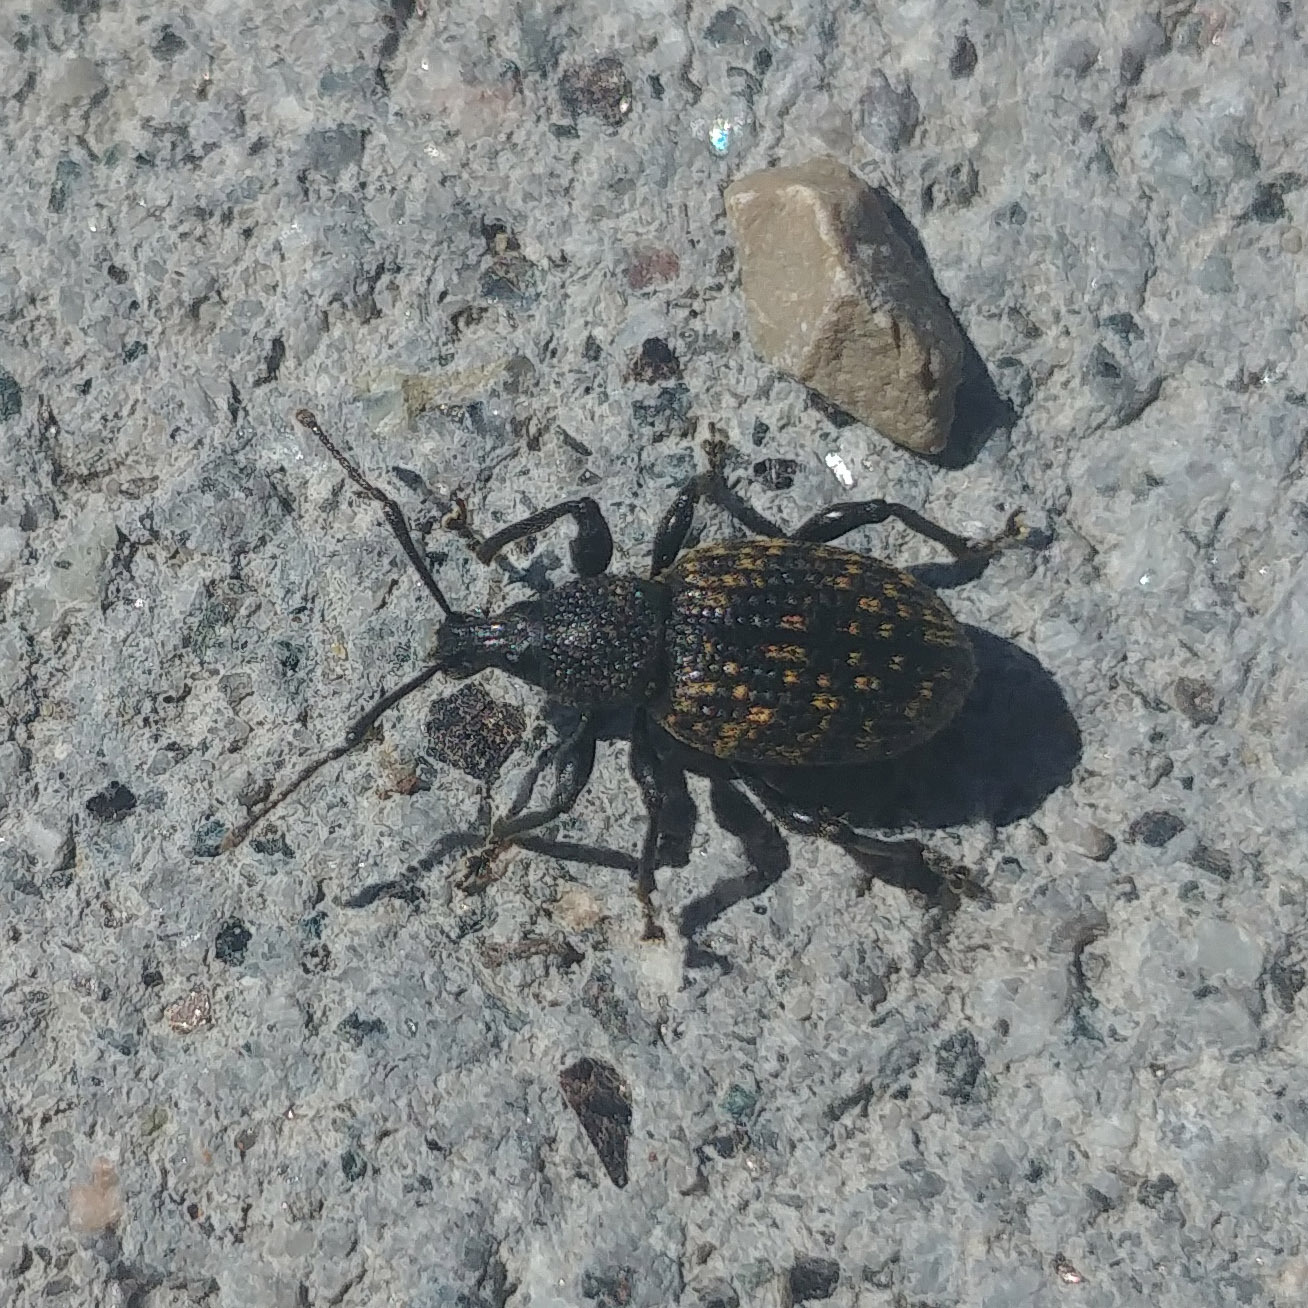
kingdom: Animalia
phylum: Arthropoda
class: Insecta
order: Coleoptera
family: Curculionidae
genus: Otiorhynchus
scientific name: Otiorhynchus sulcatus
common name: Black vine weevil
